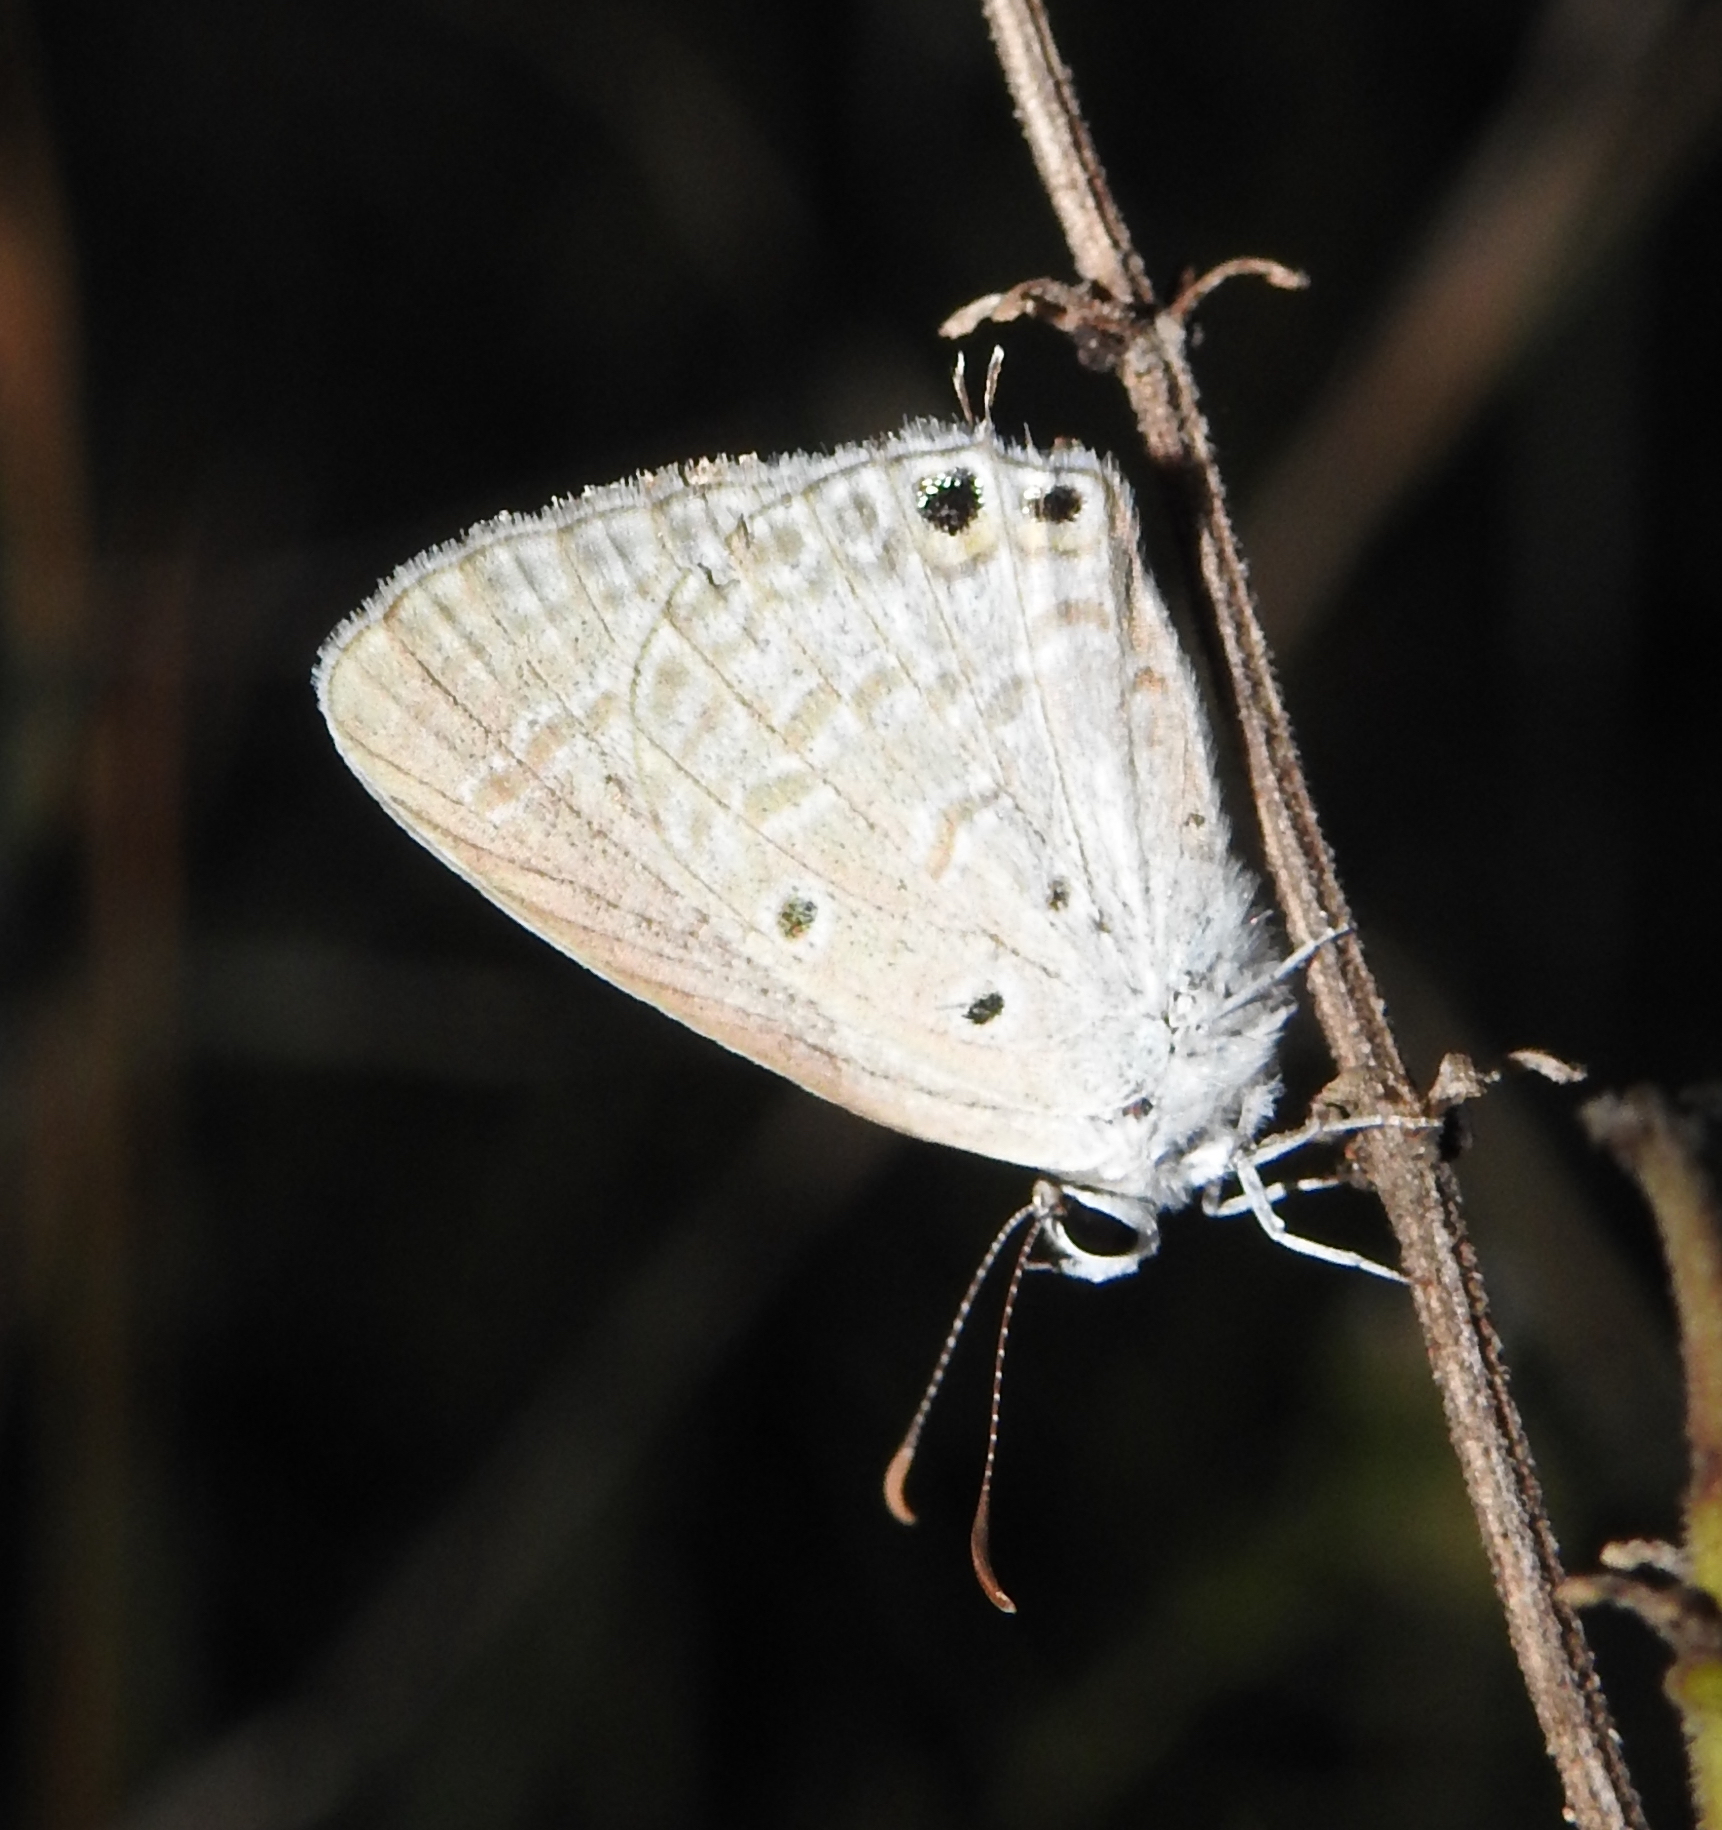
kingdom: Animalia
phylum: Arthropoda
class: Insecta
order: Lepidoptera
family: Lycaenidae
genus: Euchrysops
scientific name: Euchrysops cnejus
